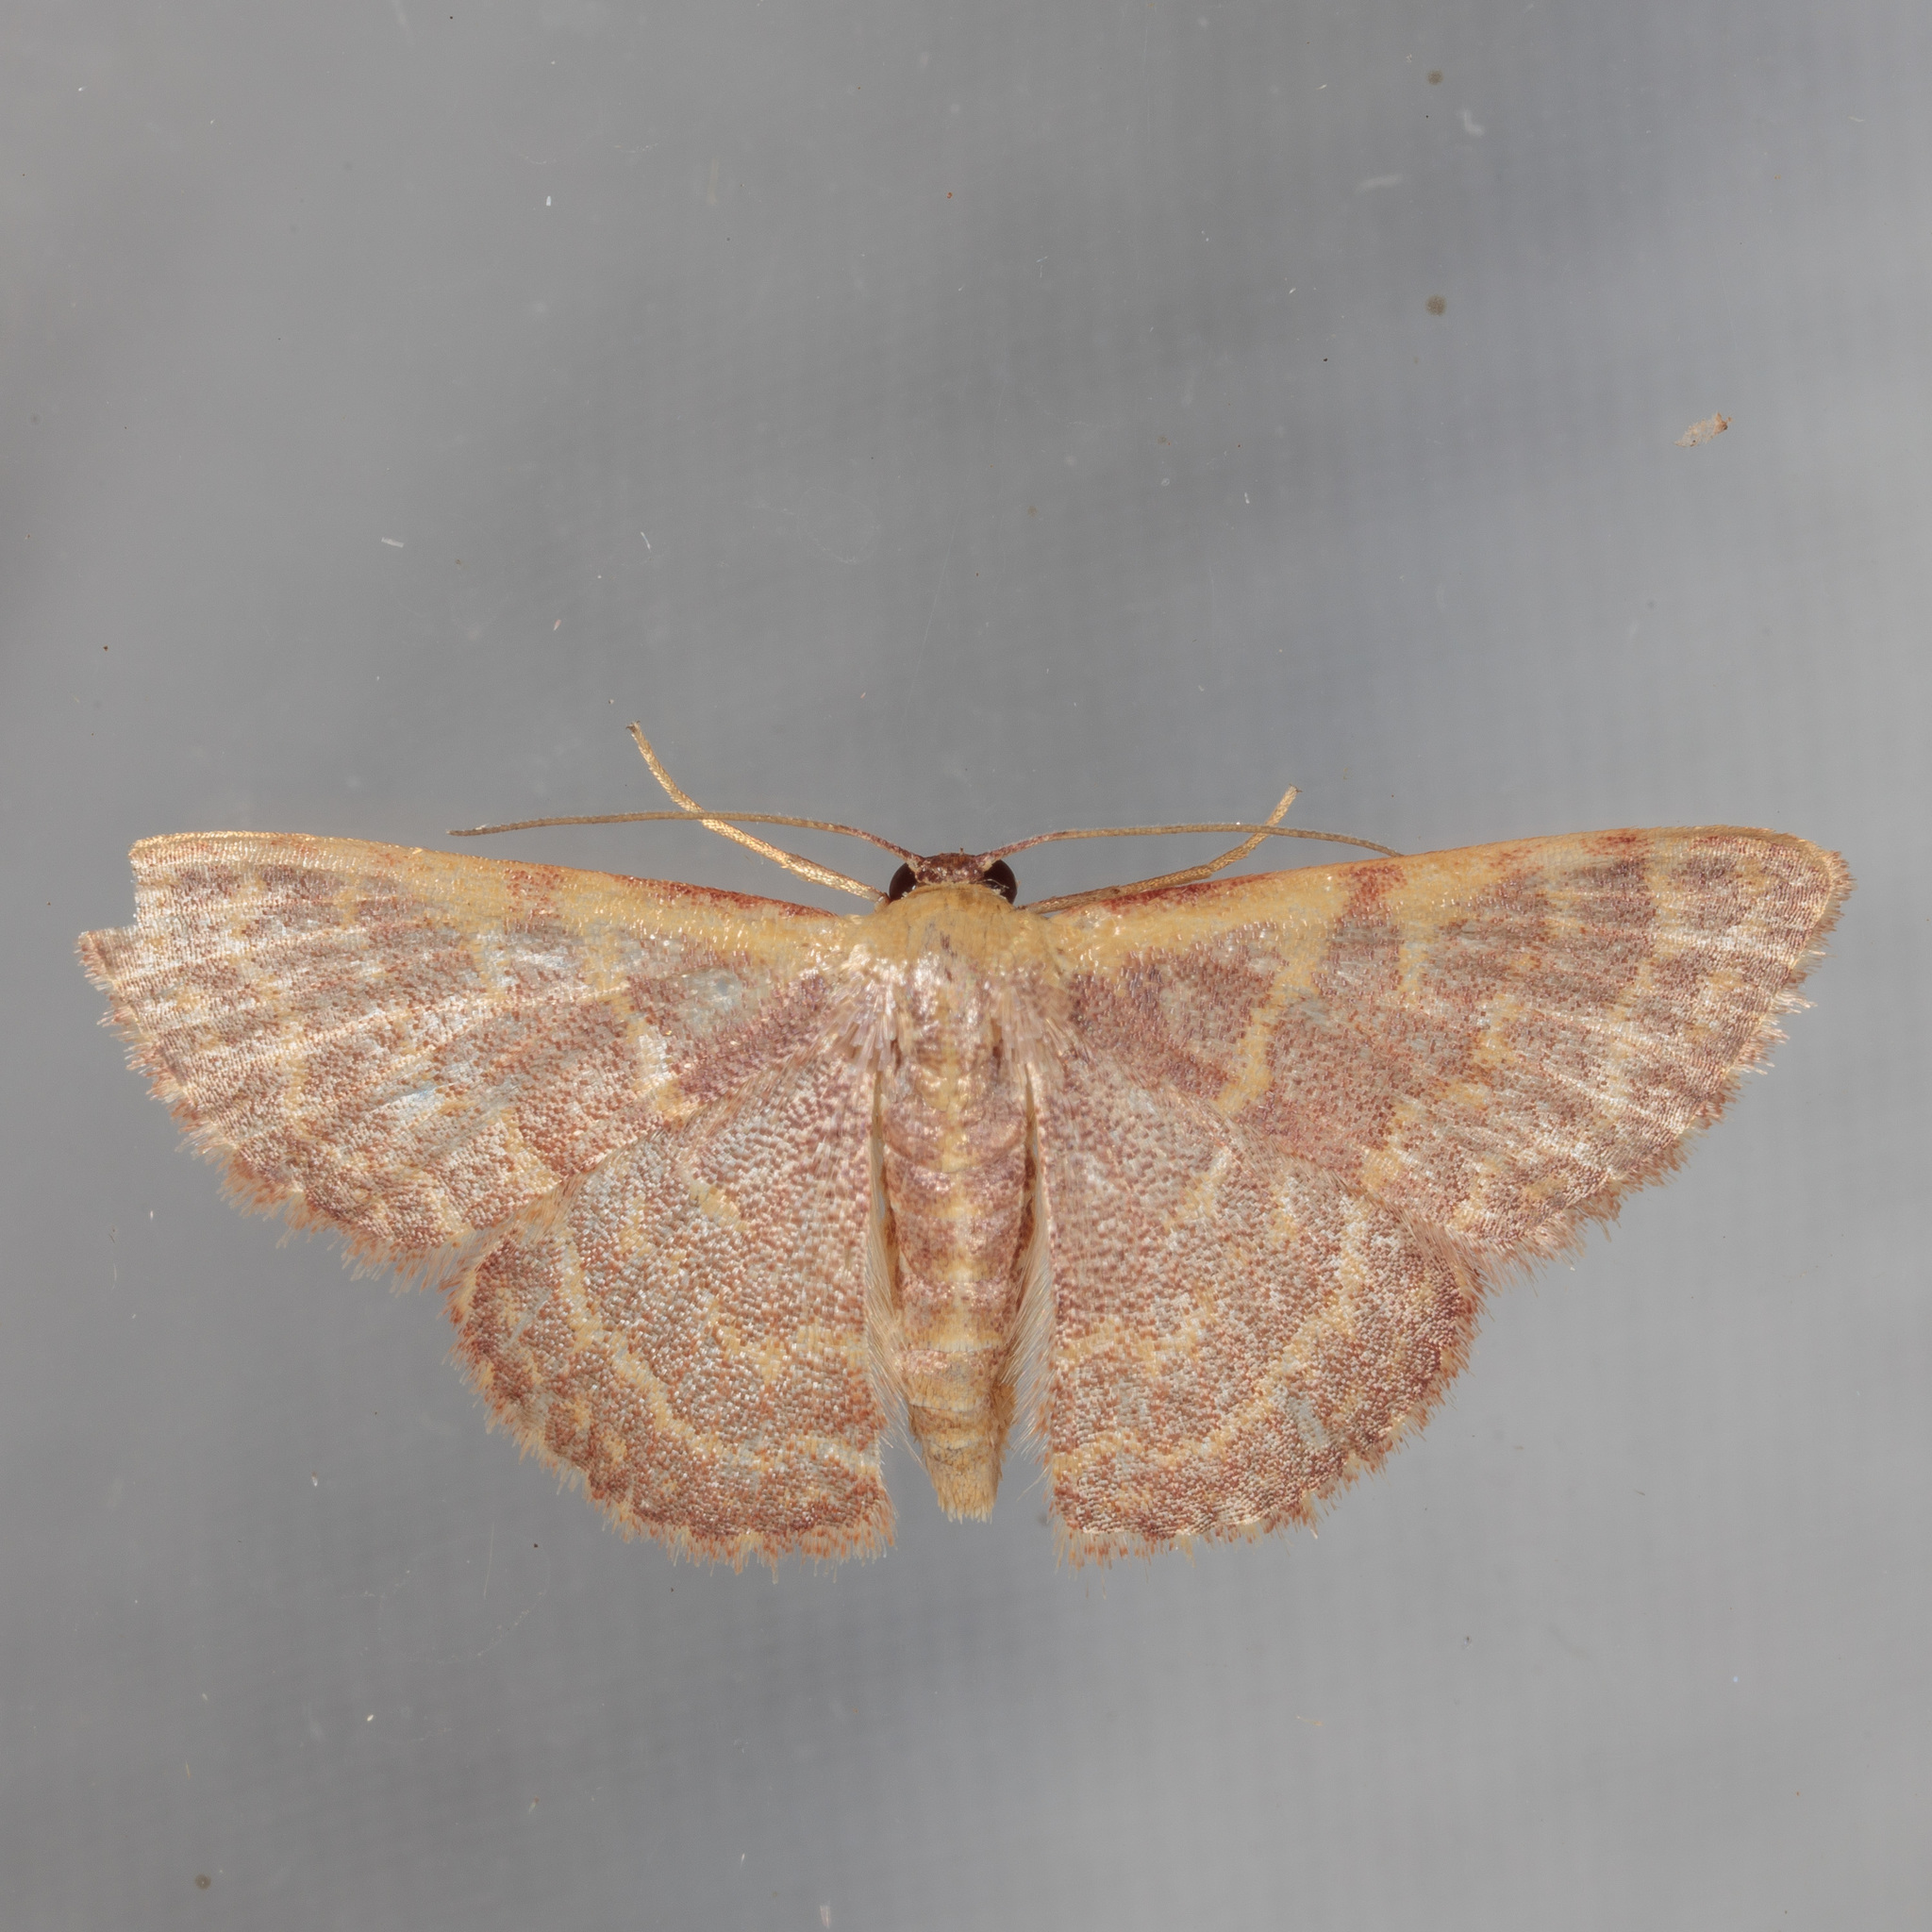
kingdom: Animalia
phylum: Arthropoda
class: Insecta
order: Lepidoptera
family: Geometridae
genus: Leptostales
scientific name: Leptostales pannaria
